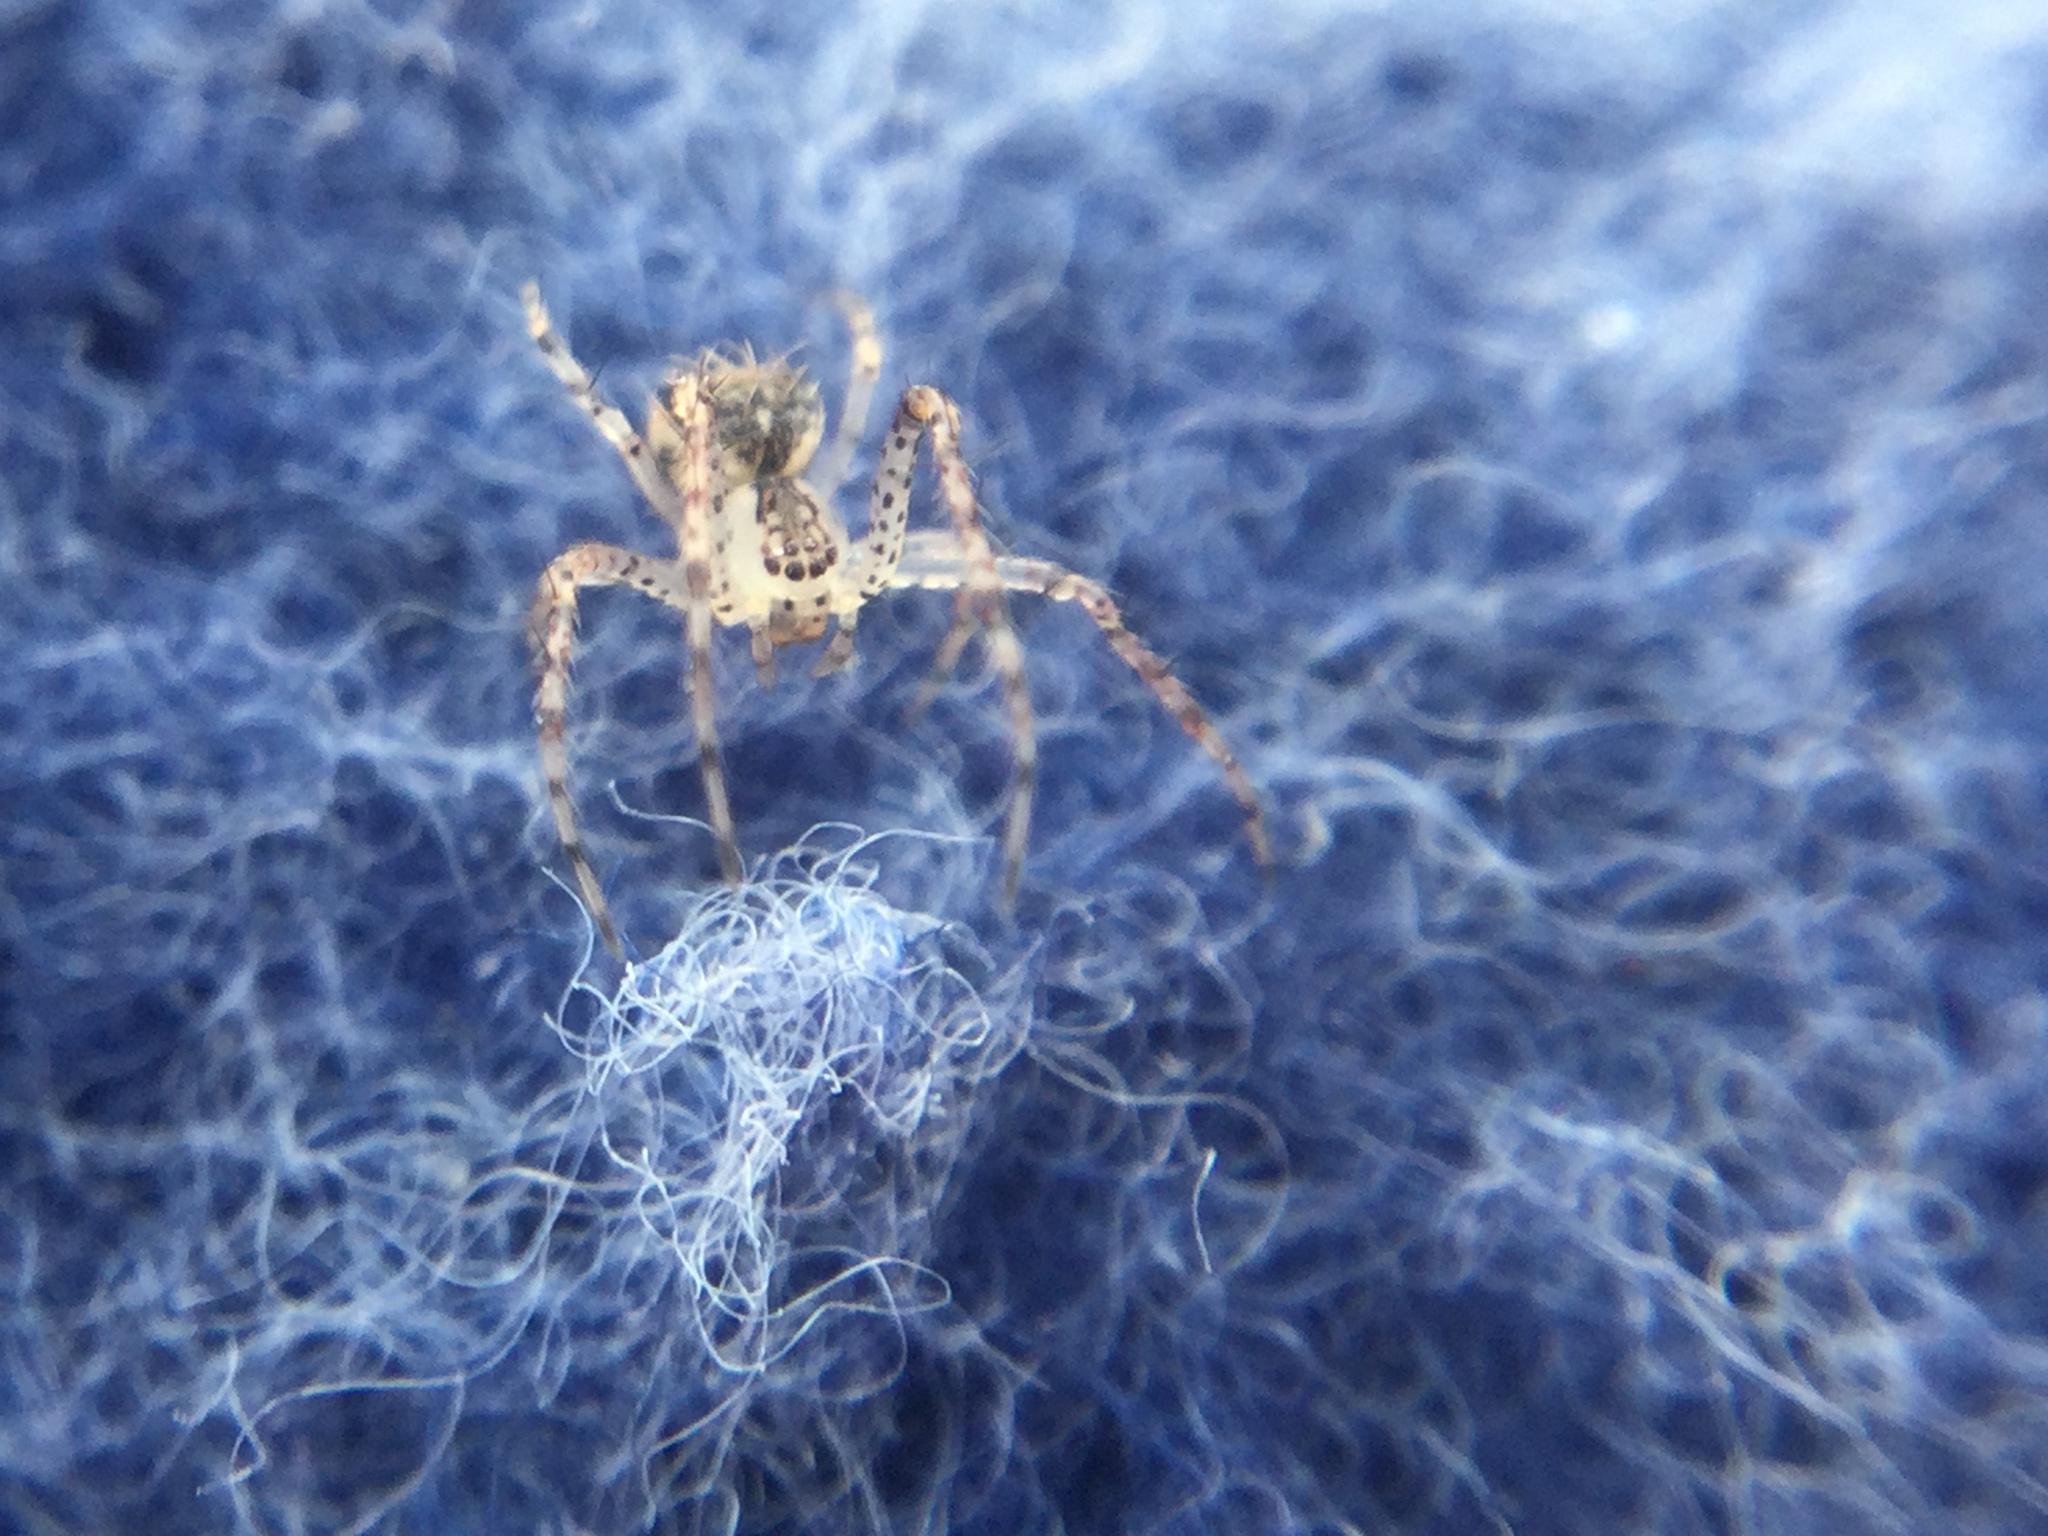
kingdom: Animalia
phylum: Arthropoda
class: Arachnida
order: Araneae
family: Mimetidae
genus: Mimetus
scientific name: Mimetus puritanus
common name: Common pirate spider
